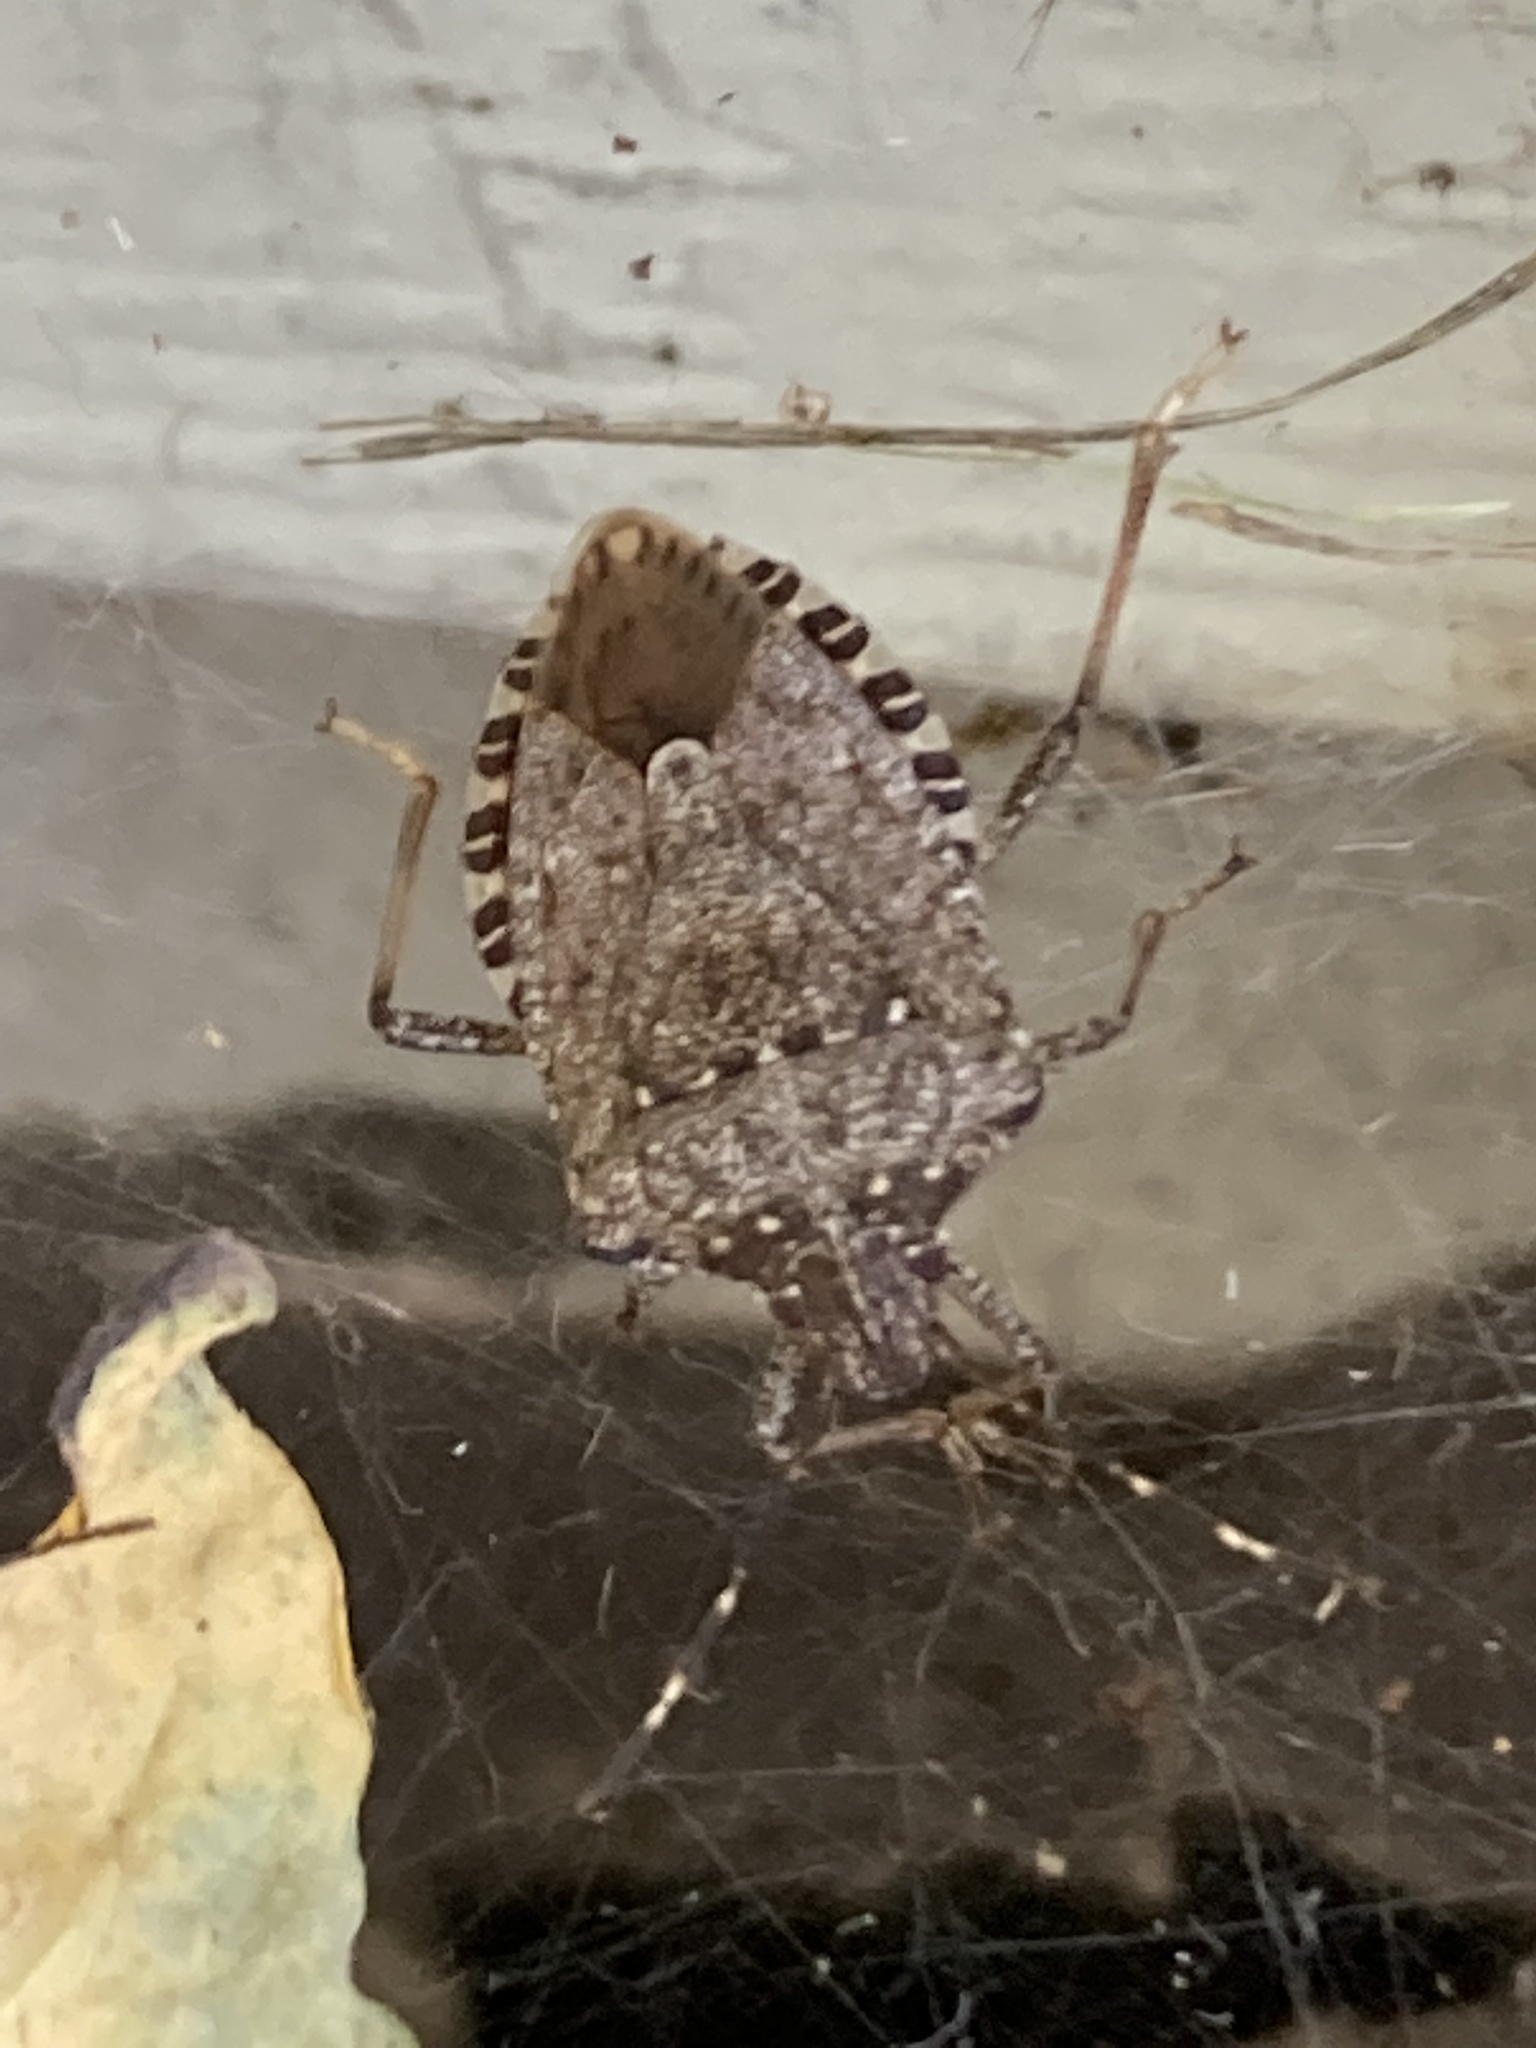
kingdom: Animalia
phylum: Arthropoda
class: Insecta
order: Hemiptera
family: Pentatomidae
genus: Halyomorpha
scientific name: Halyomorpha halys
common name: Brown marmorated stink bug
